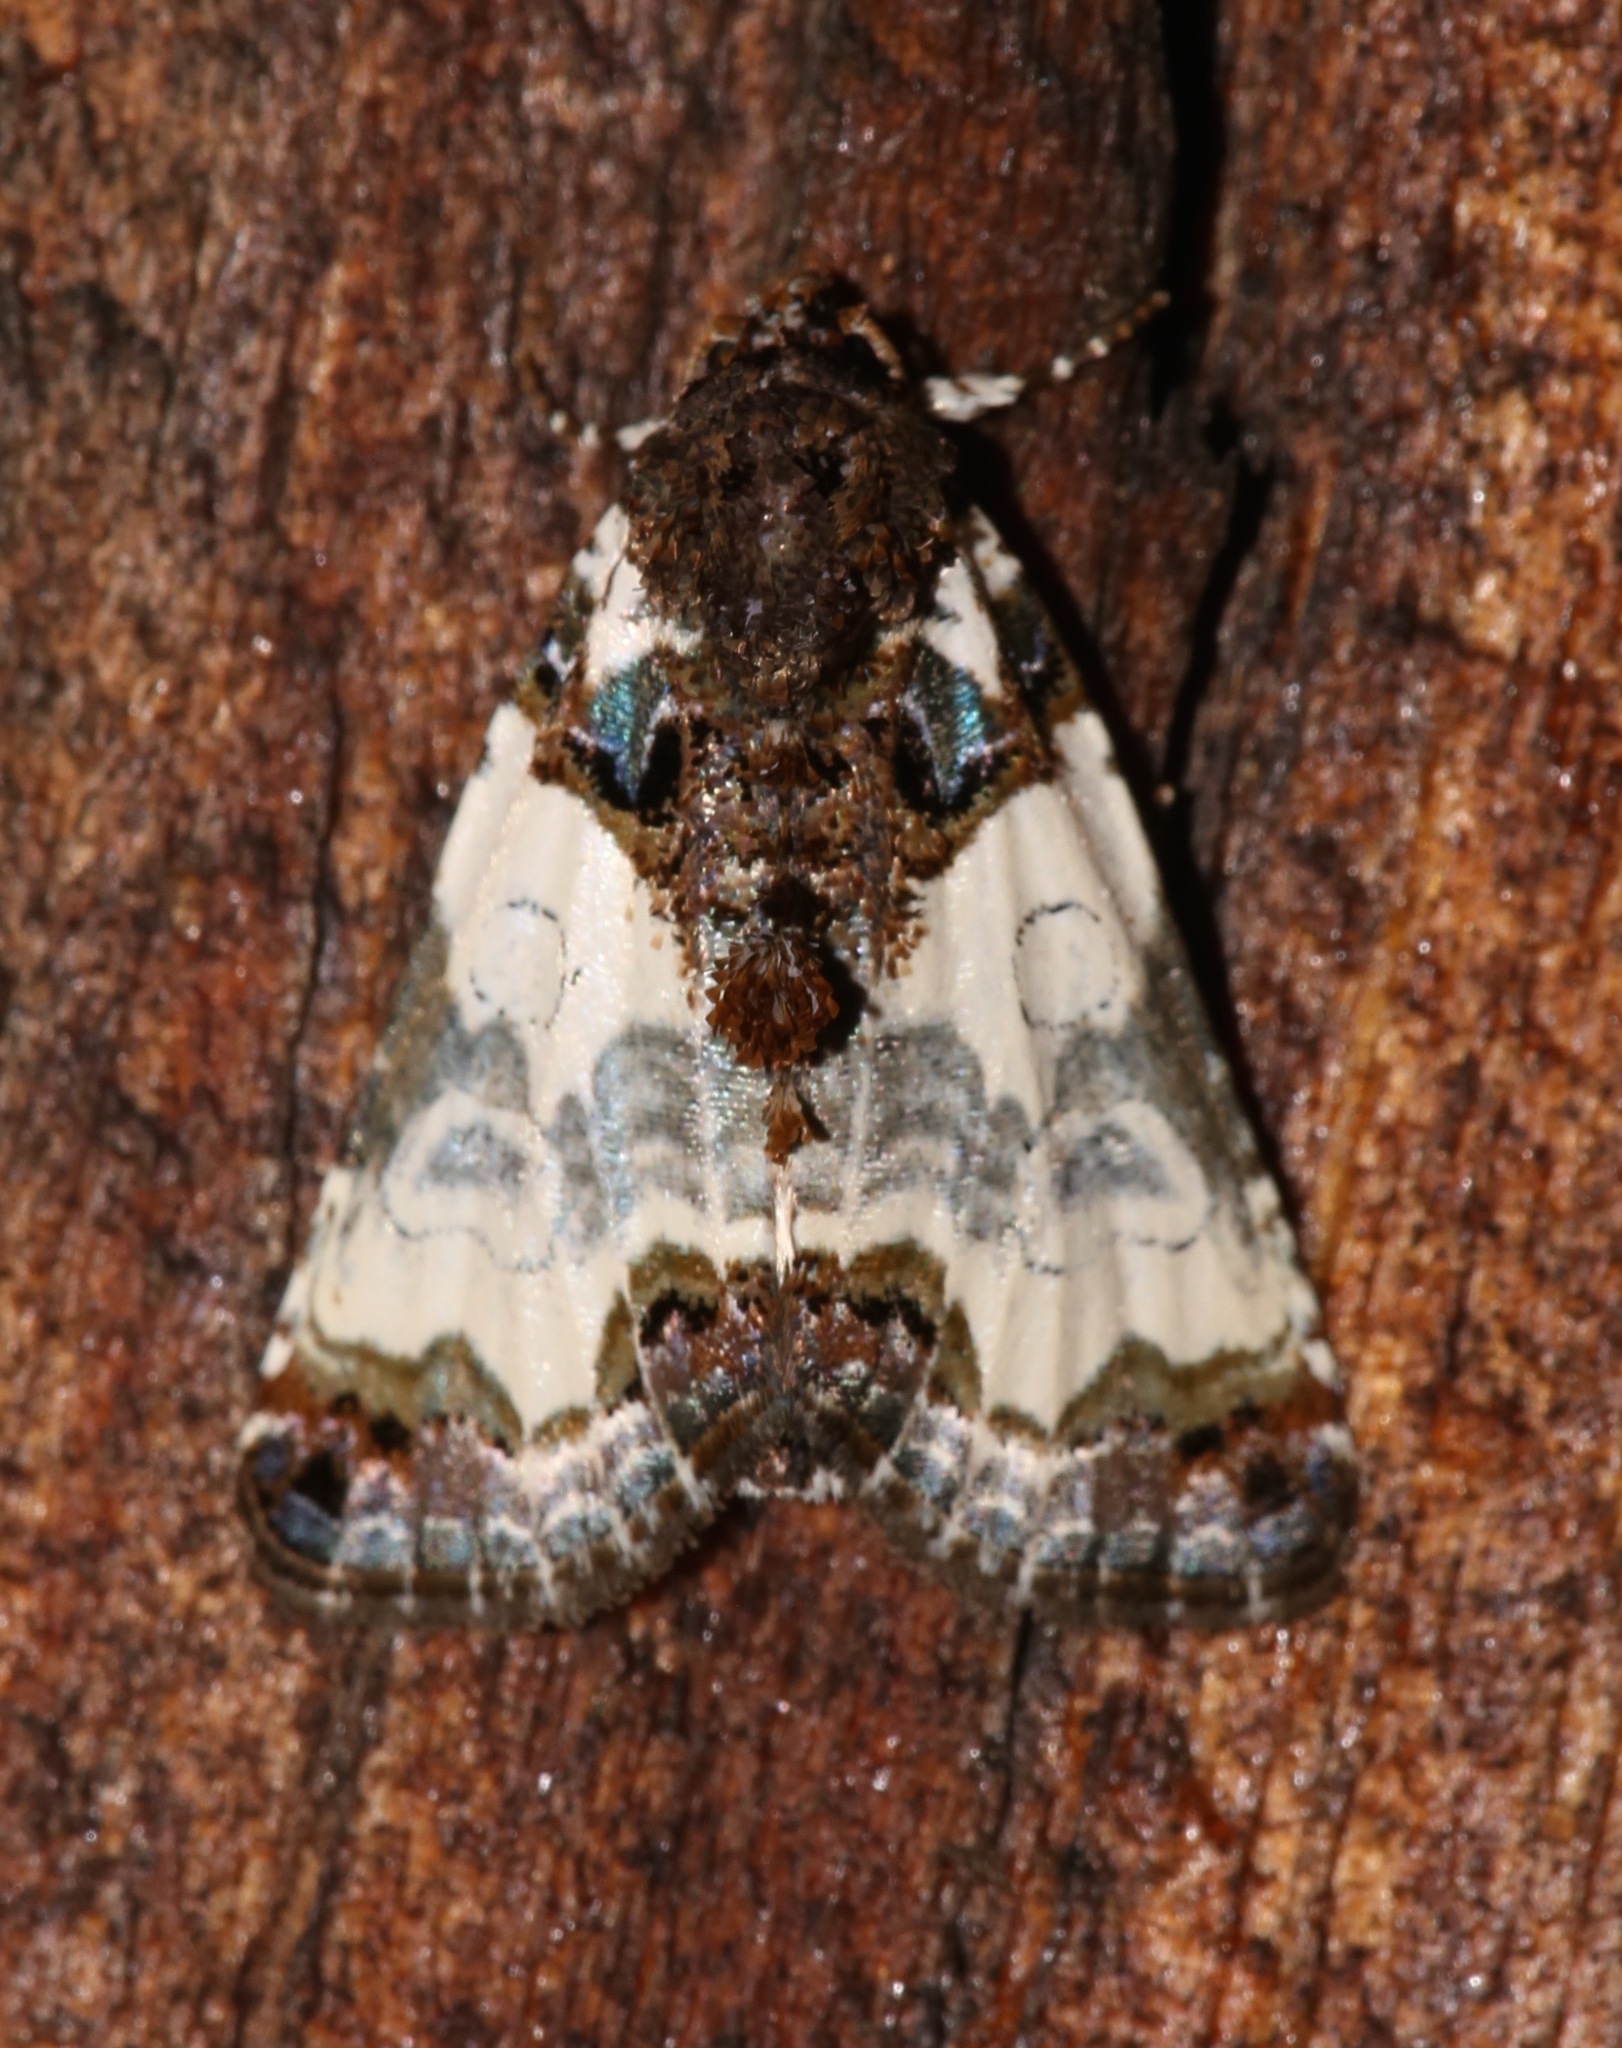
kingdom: Animalia
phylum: Arthropoda
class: Insecta
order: Lepidoptera
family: Noctuidae
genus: Cerma
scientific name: Cerma cerintha
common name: Tufted bird-dropping moth
